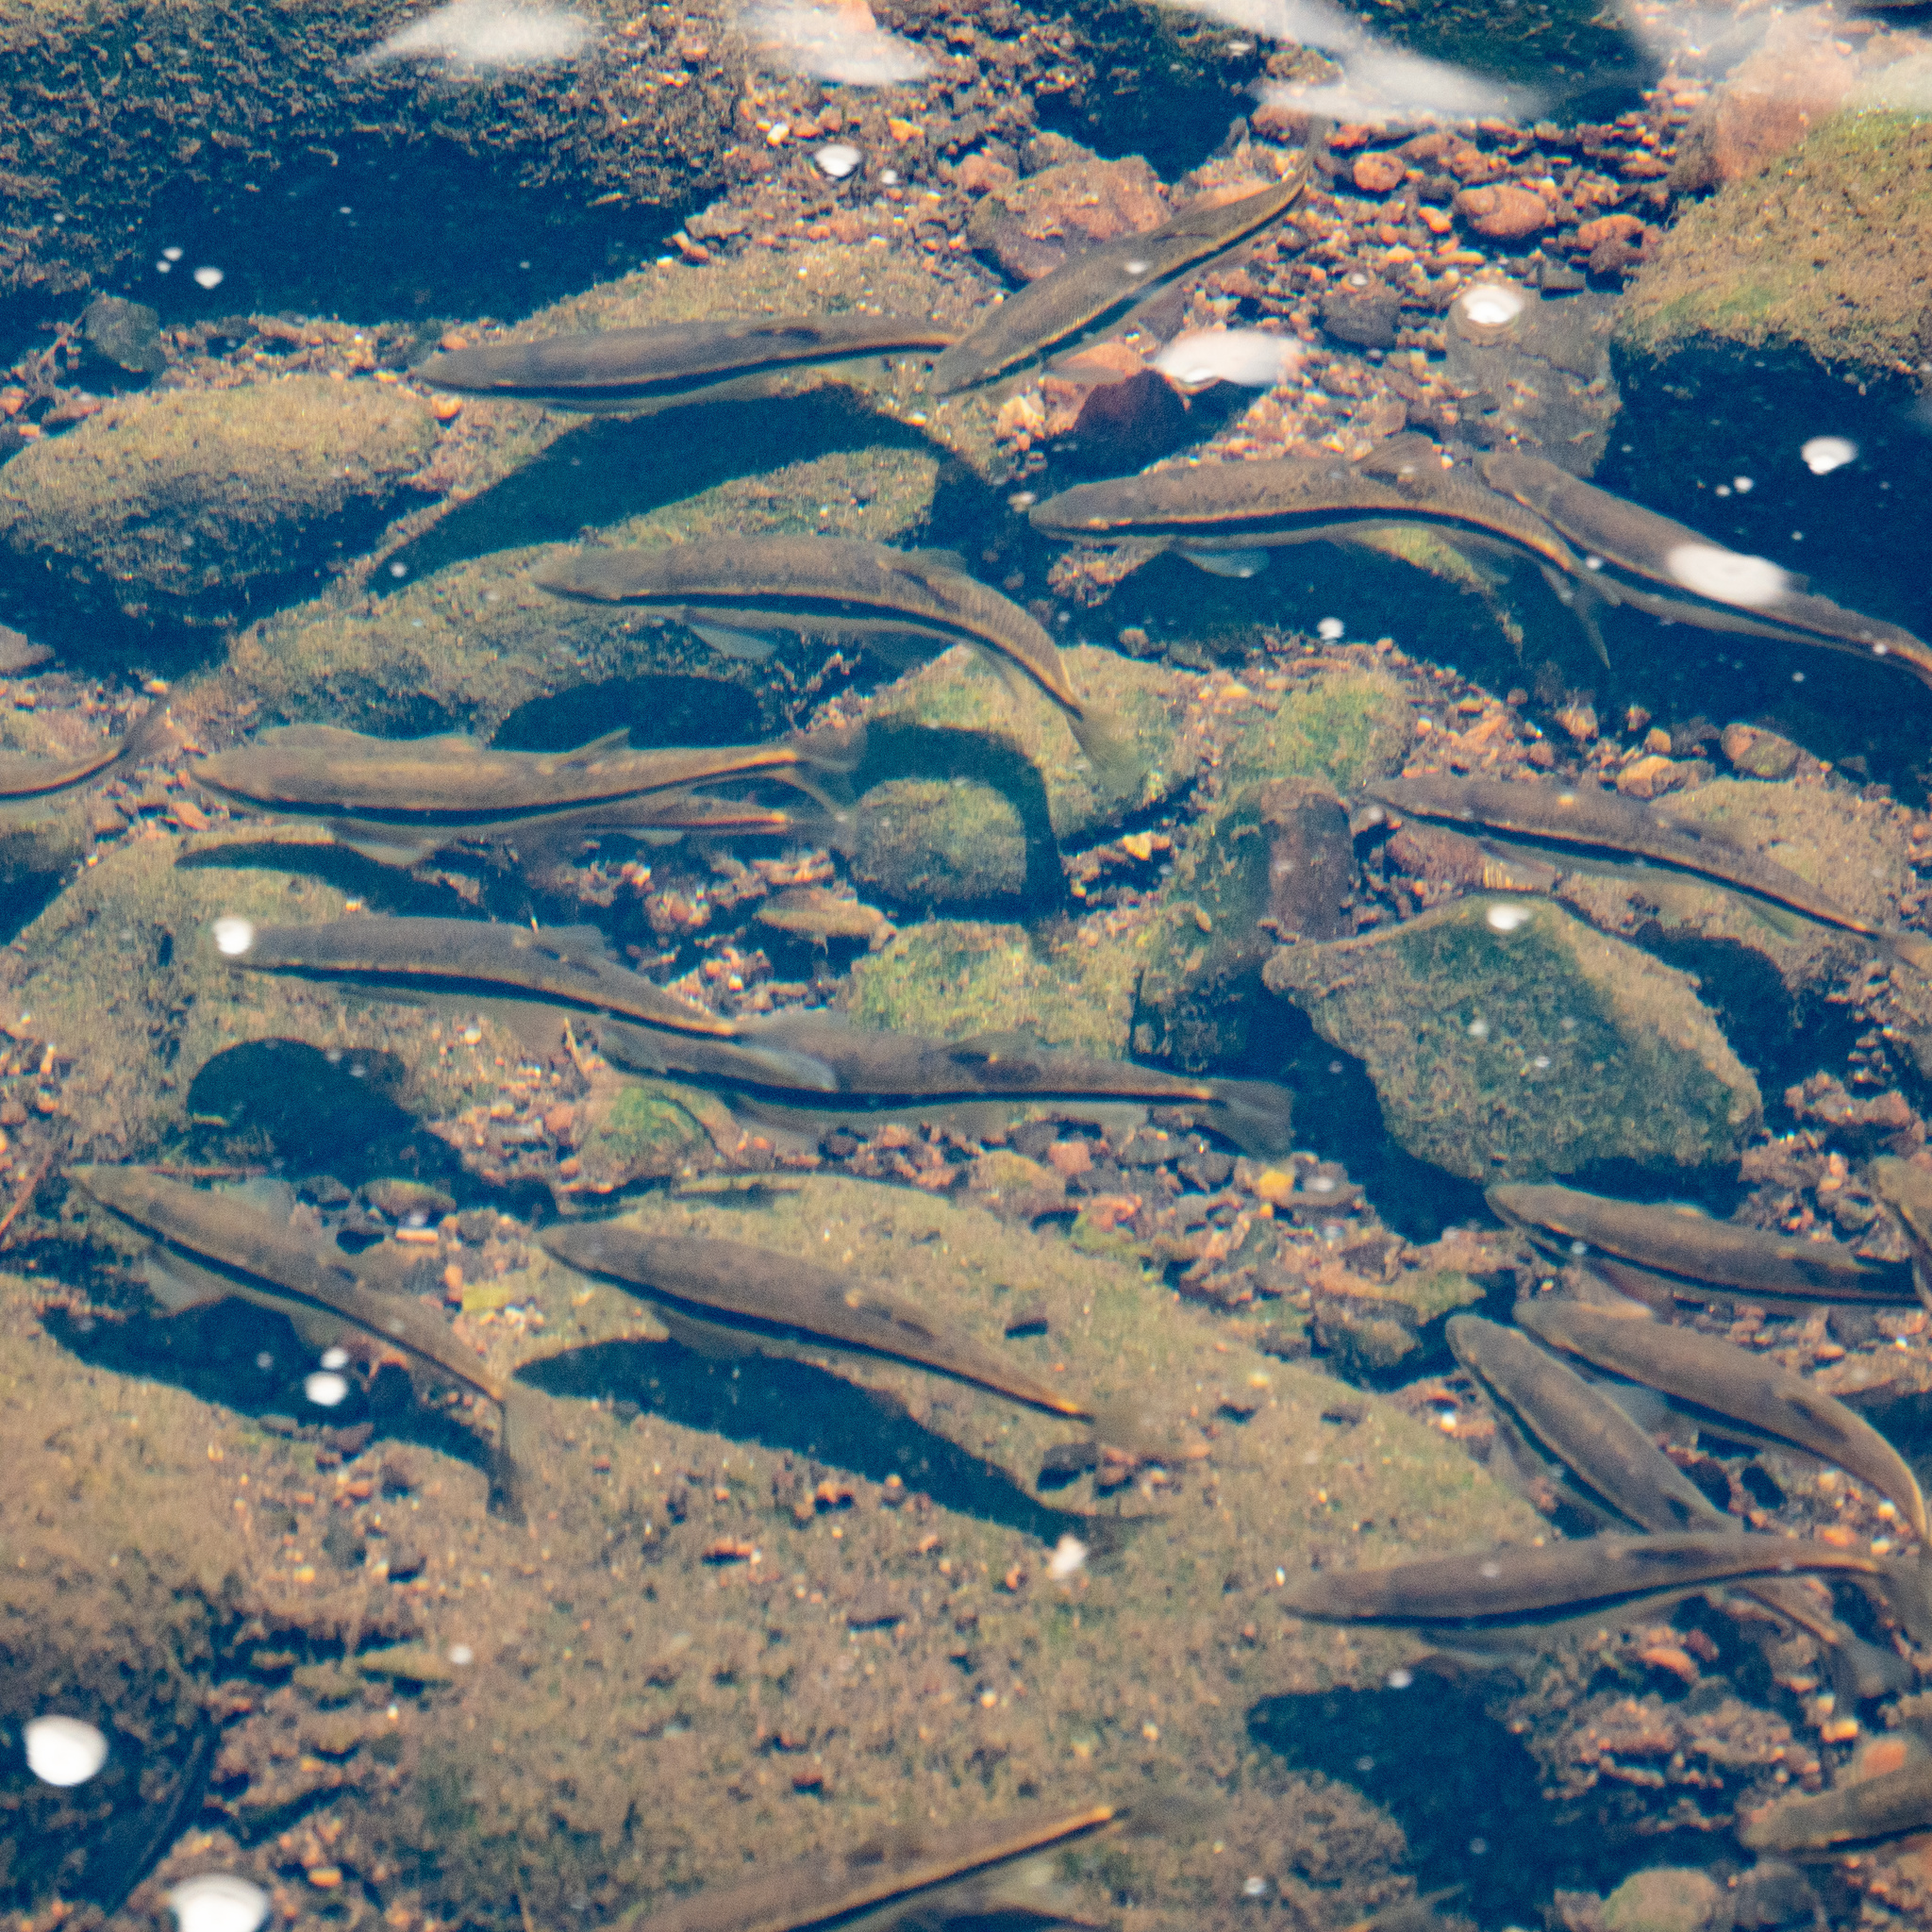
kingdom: Animalia
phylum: Chordata
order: Cypriniformes
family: Cyprinidae
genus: Rhinichthys
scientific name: Rhinichthys atratulus
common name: Eastern blacknose dace
